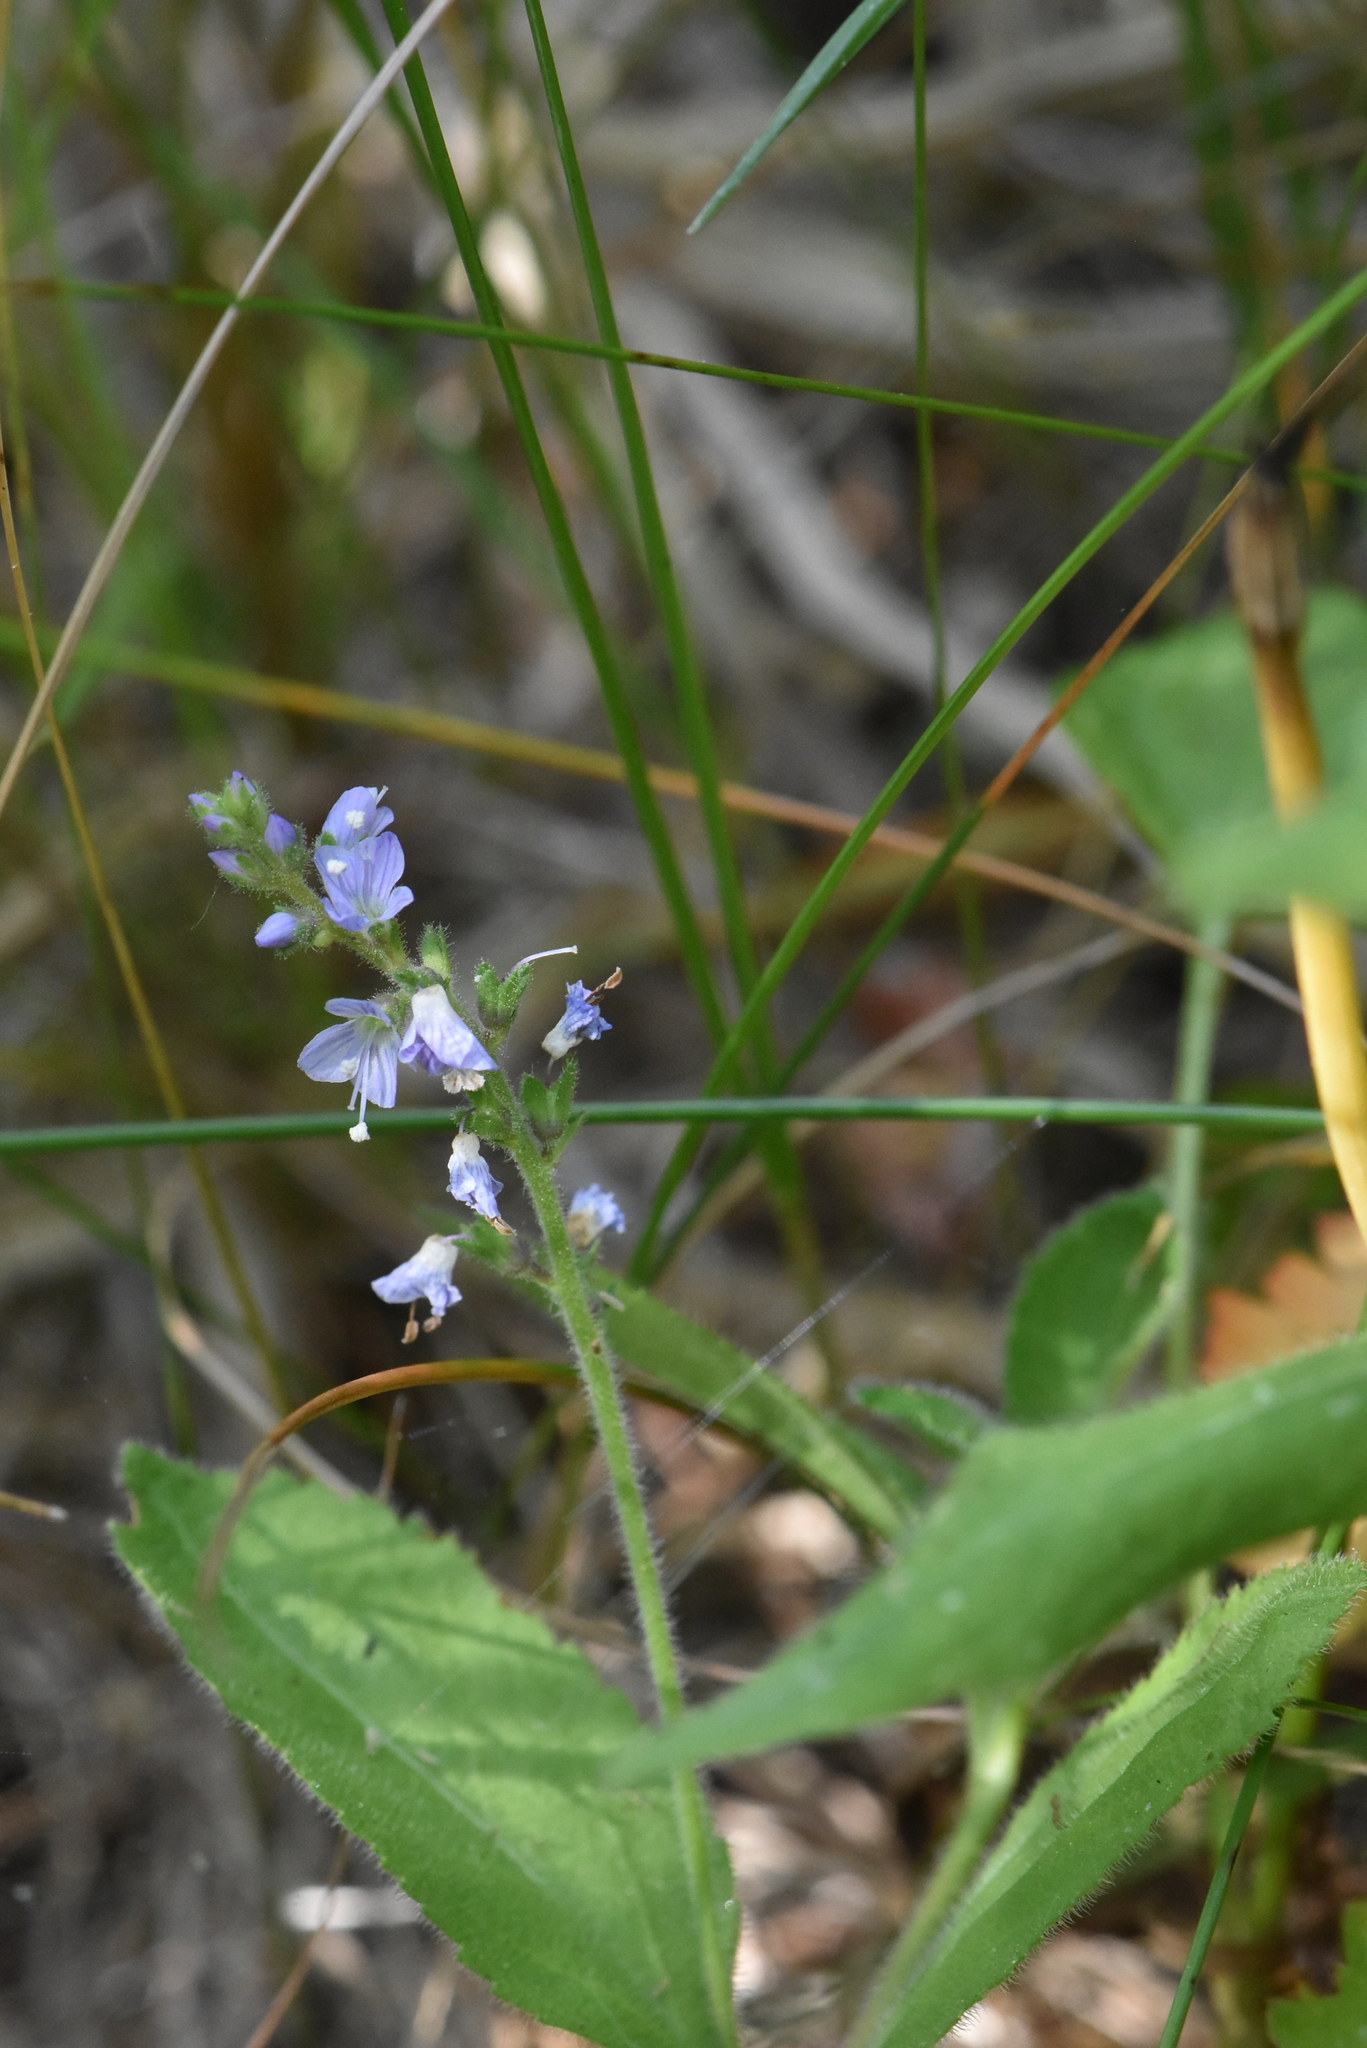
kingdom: Plantae
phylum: Tracheophyta
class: Magnoliopsida
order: Lamiales
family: Plantaginaceae
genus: Veronica
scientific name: Veronica officinalis
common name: Common speedwell
